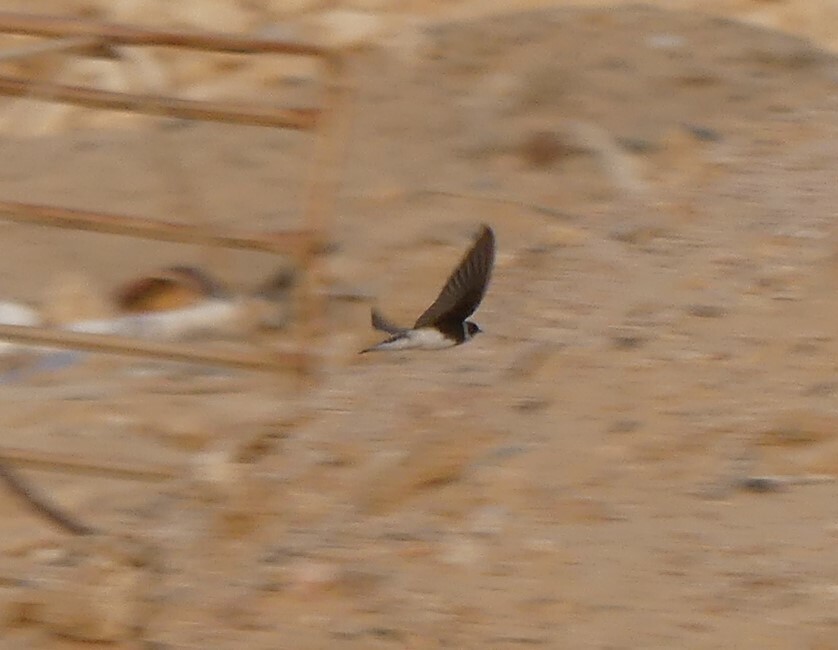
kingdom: Animalia
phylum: Chordata
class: Aves
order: Passeriformes
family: Hirundinidae
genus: Riparia
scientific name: Riparia riparia
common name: Sand martin
